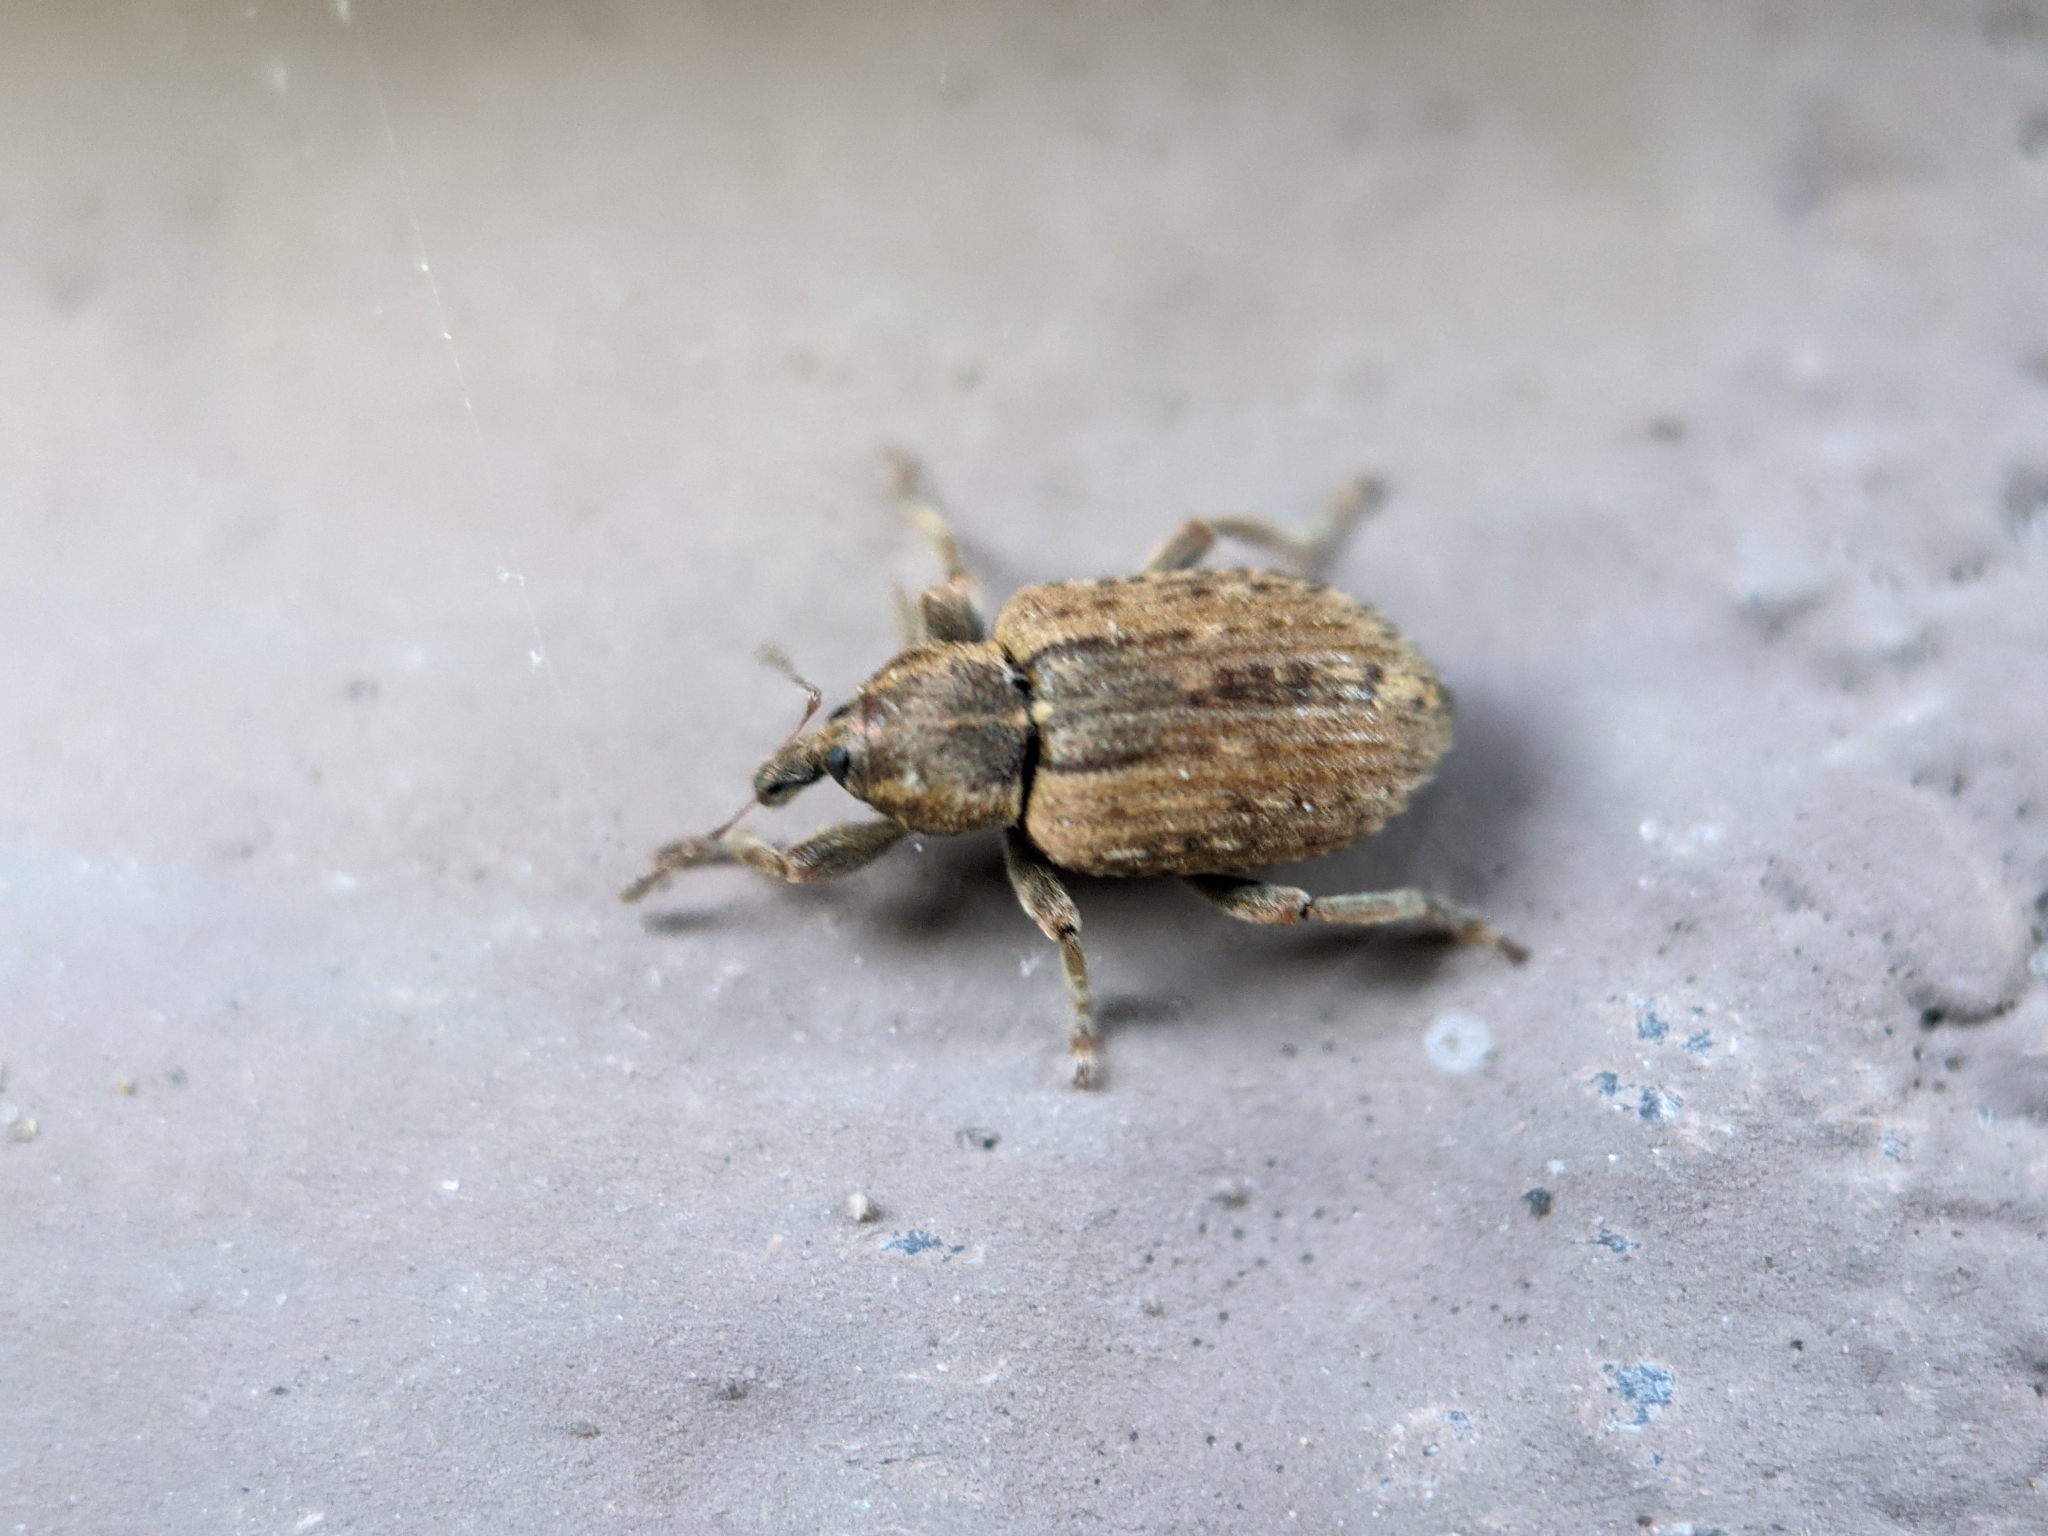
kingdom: Animalia
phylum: Arthropoda
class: Insecta
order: Coleoptera
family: Curculionidae
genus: Hypera
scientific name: Hypera postica
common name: Weevil
